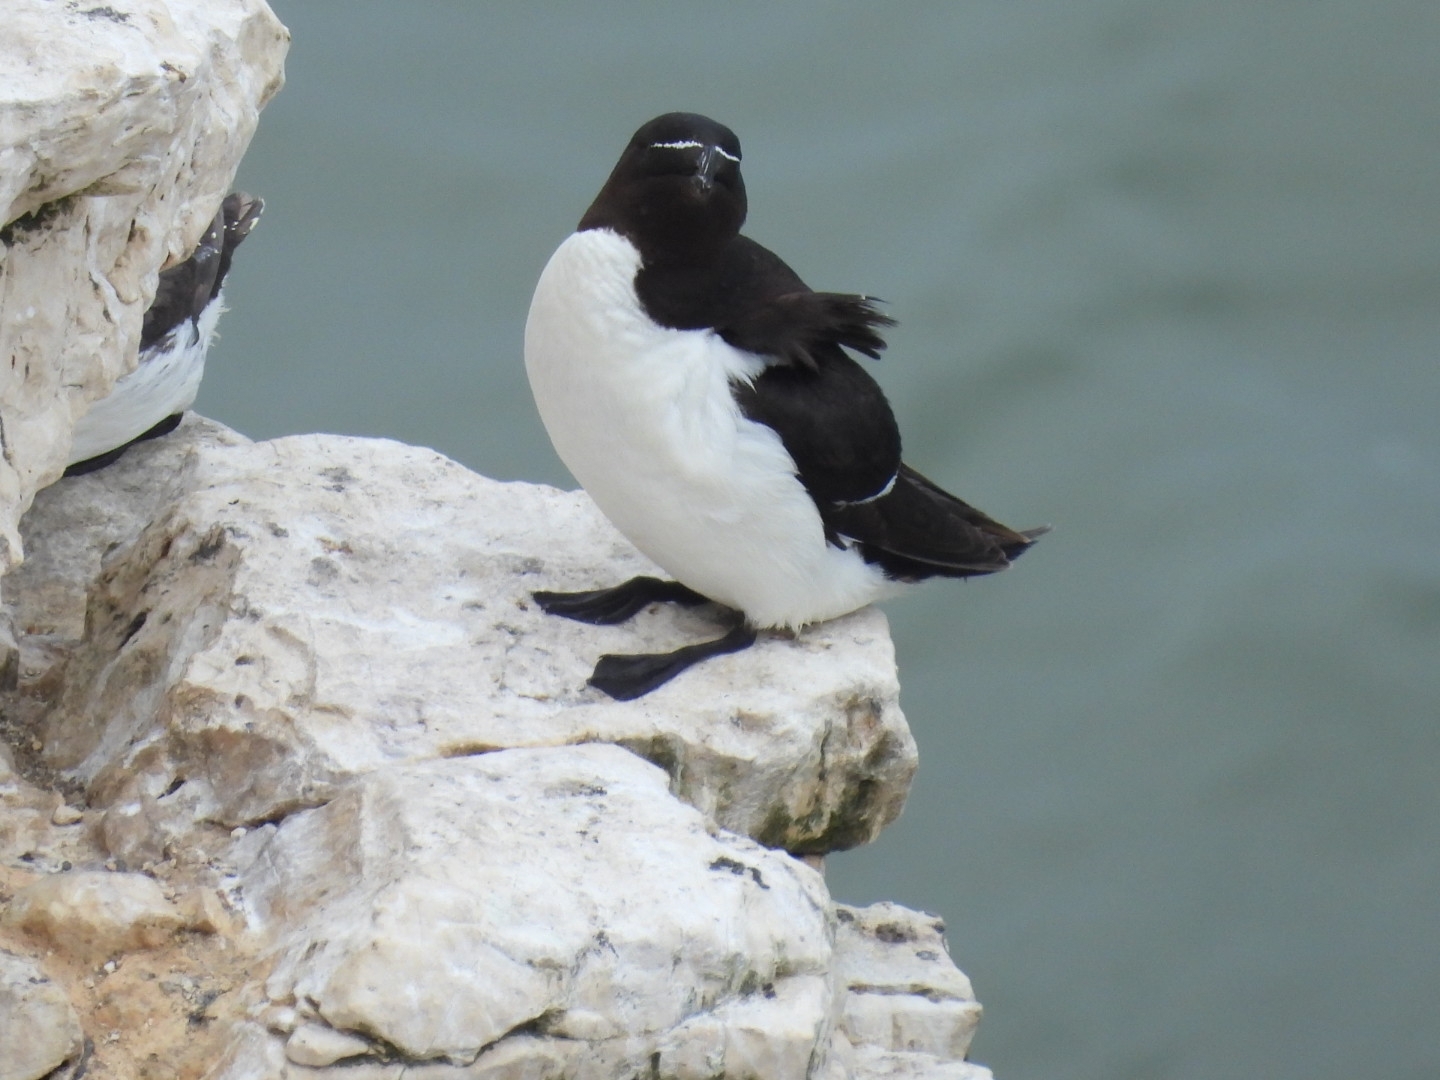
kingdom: Animalia
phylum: Chordata
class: Aves
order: Charadriiformes
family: Alcidae
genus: Alca
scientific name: Alca torda
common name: Razorbill
